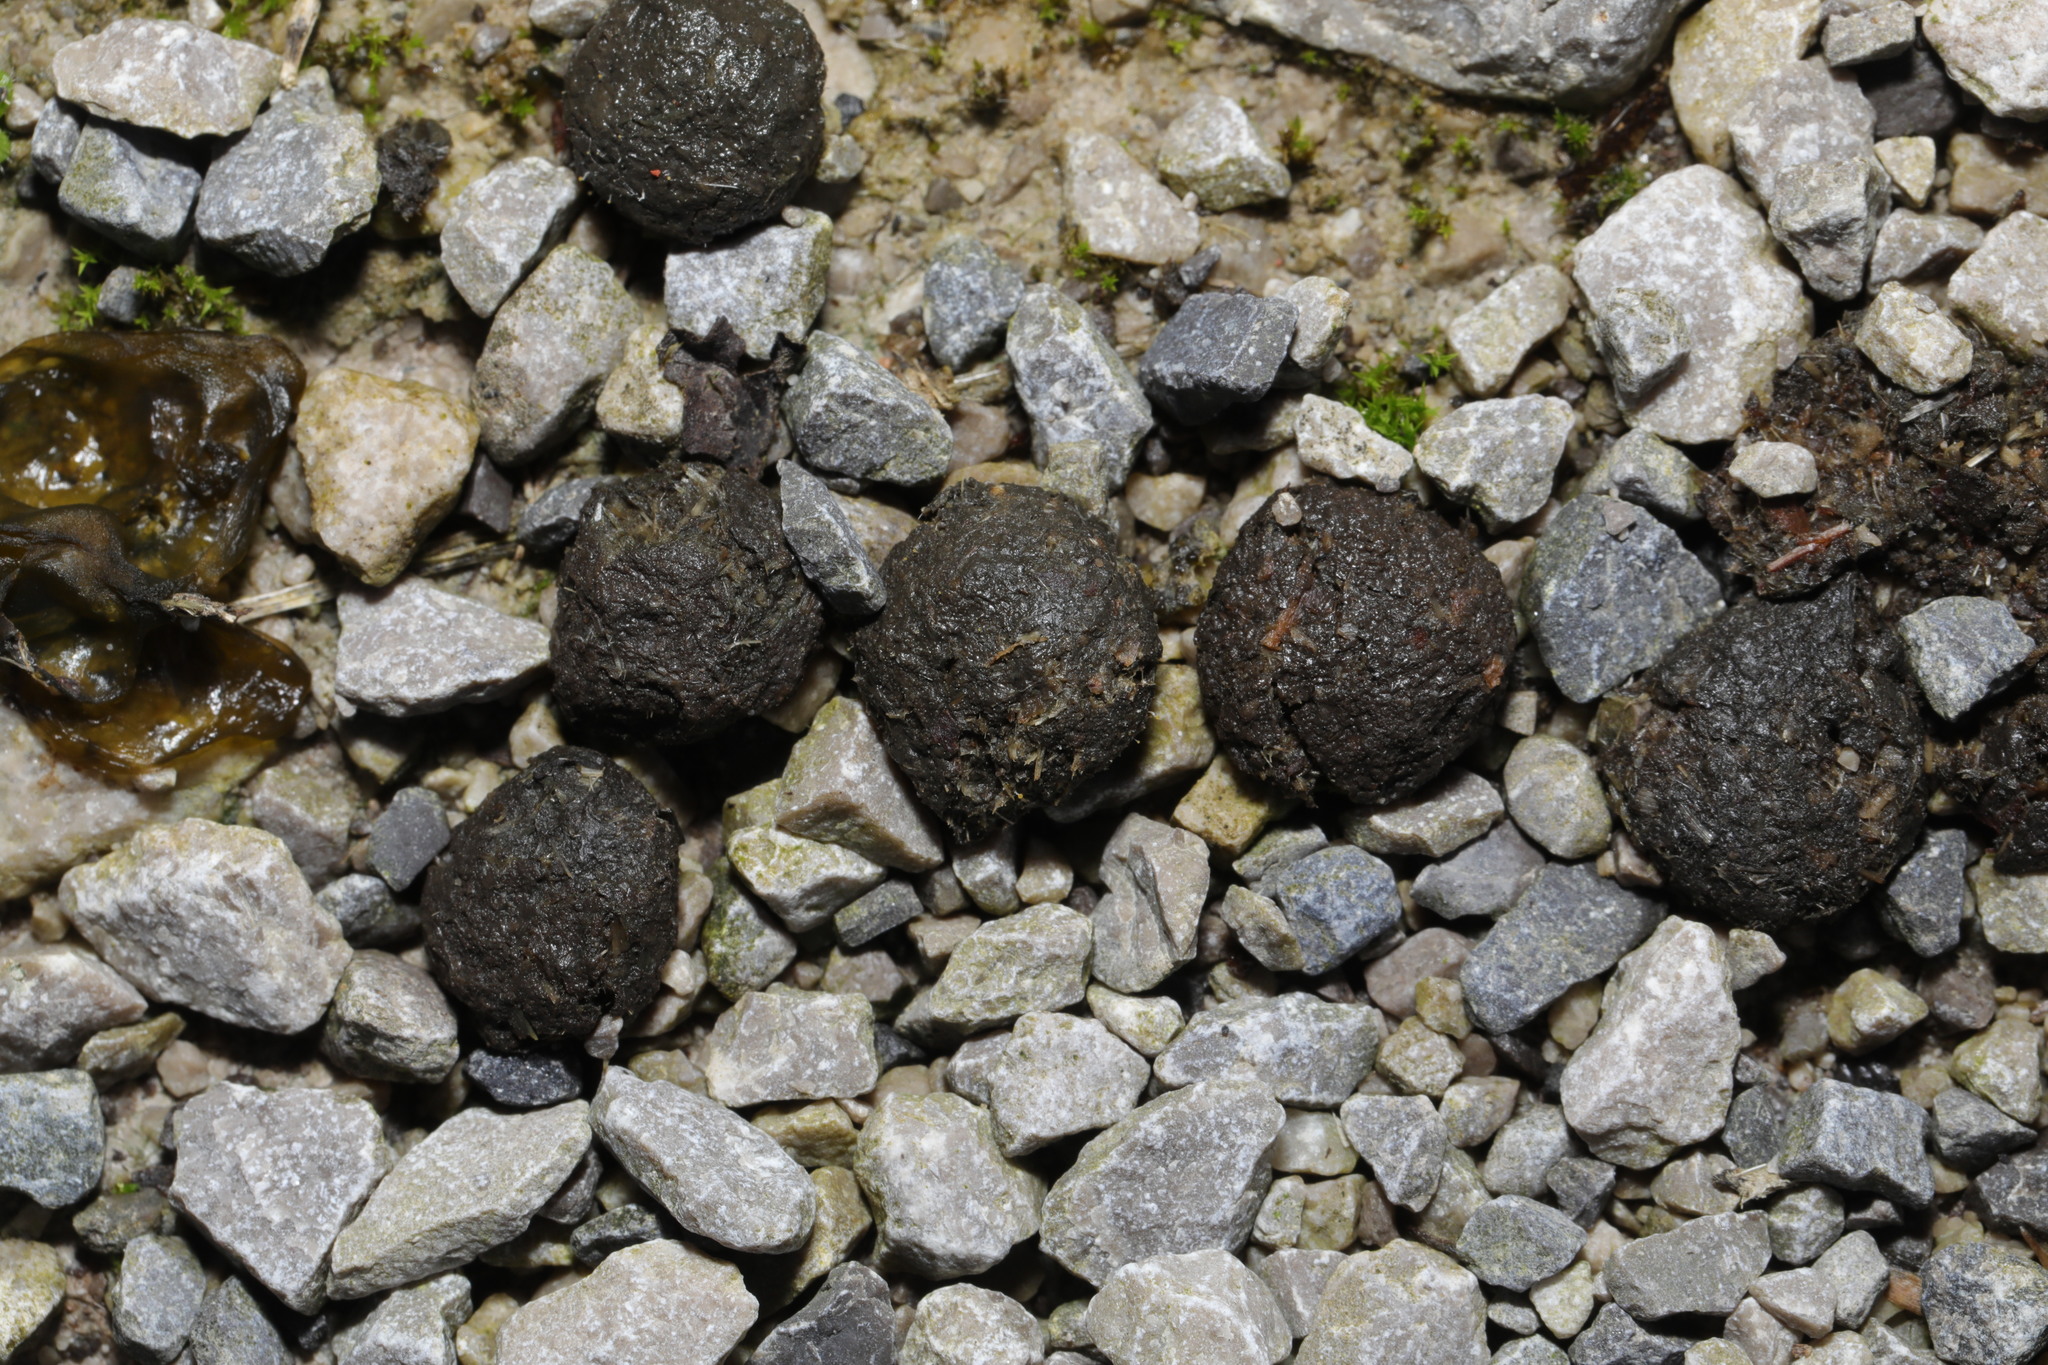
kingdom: Animalia
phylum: Chordata
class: Mammalia
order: Lagomorpha
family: Leporidae
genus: Oryctolagus
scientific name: Oryctolagus cuniculus
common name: European rabbit
